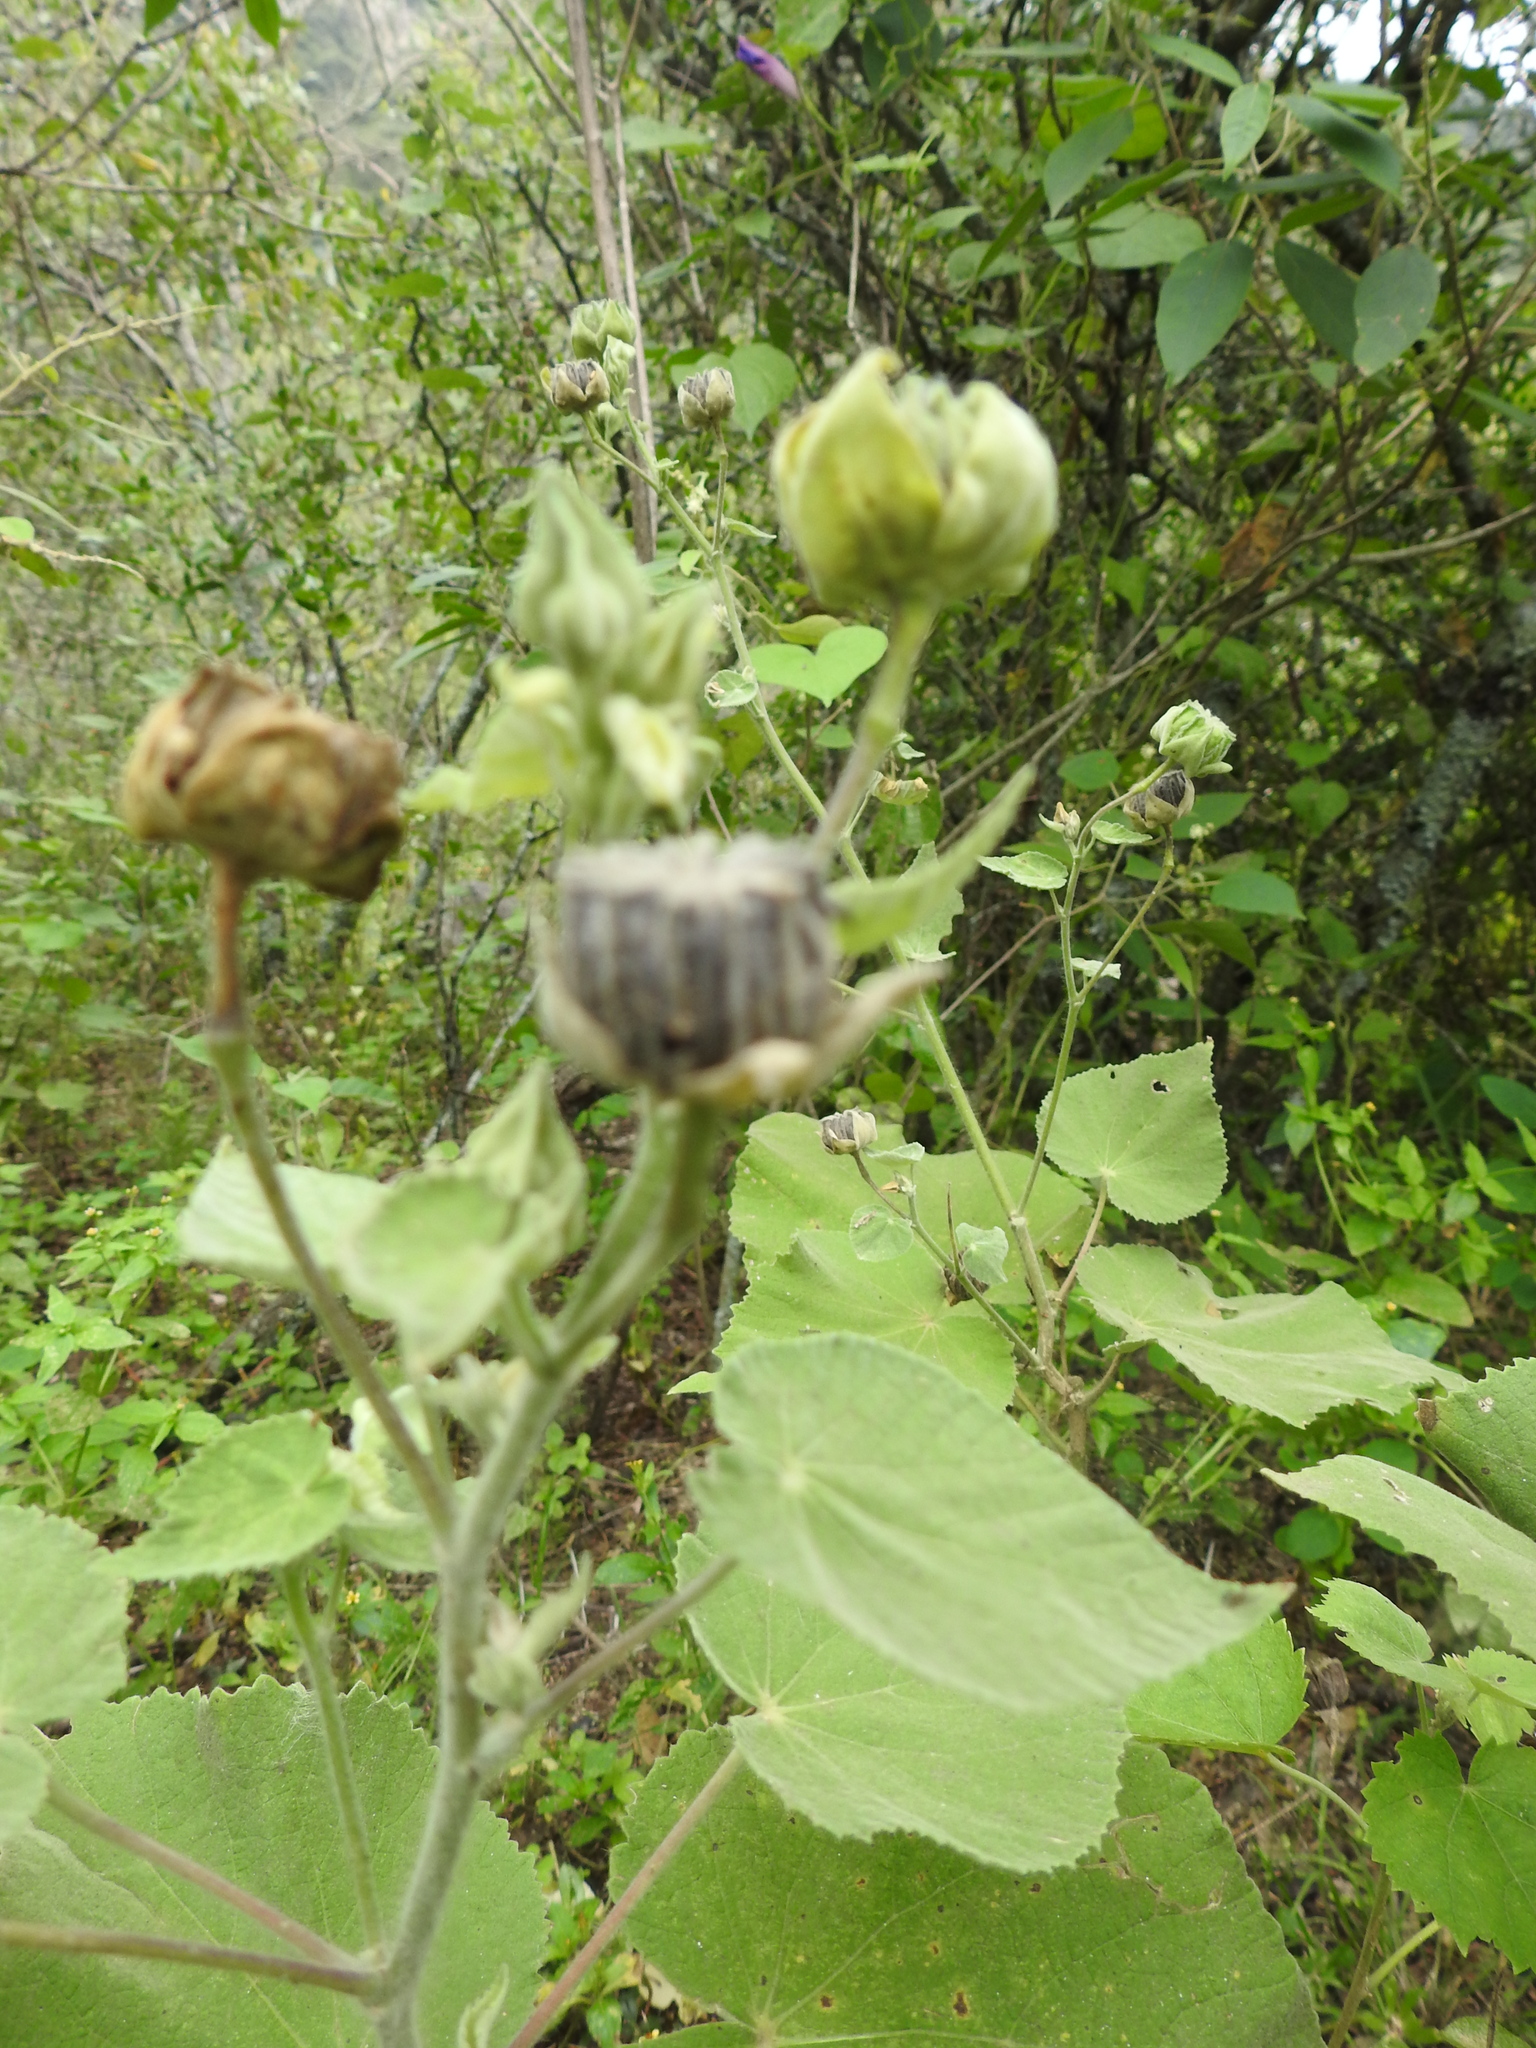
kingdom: Plantae
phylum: Tracheophyta
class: Magnoliopsida
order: Malvales
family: Malvaceae
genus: Callianthe
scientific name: Callianthe pauciflora
